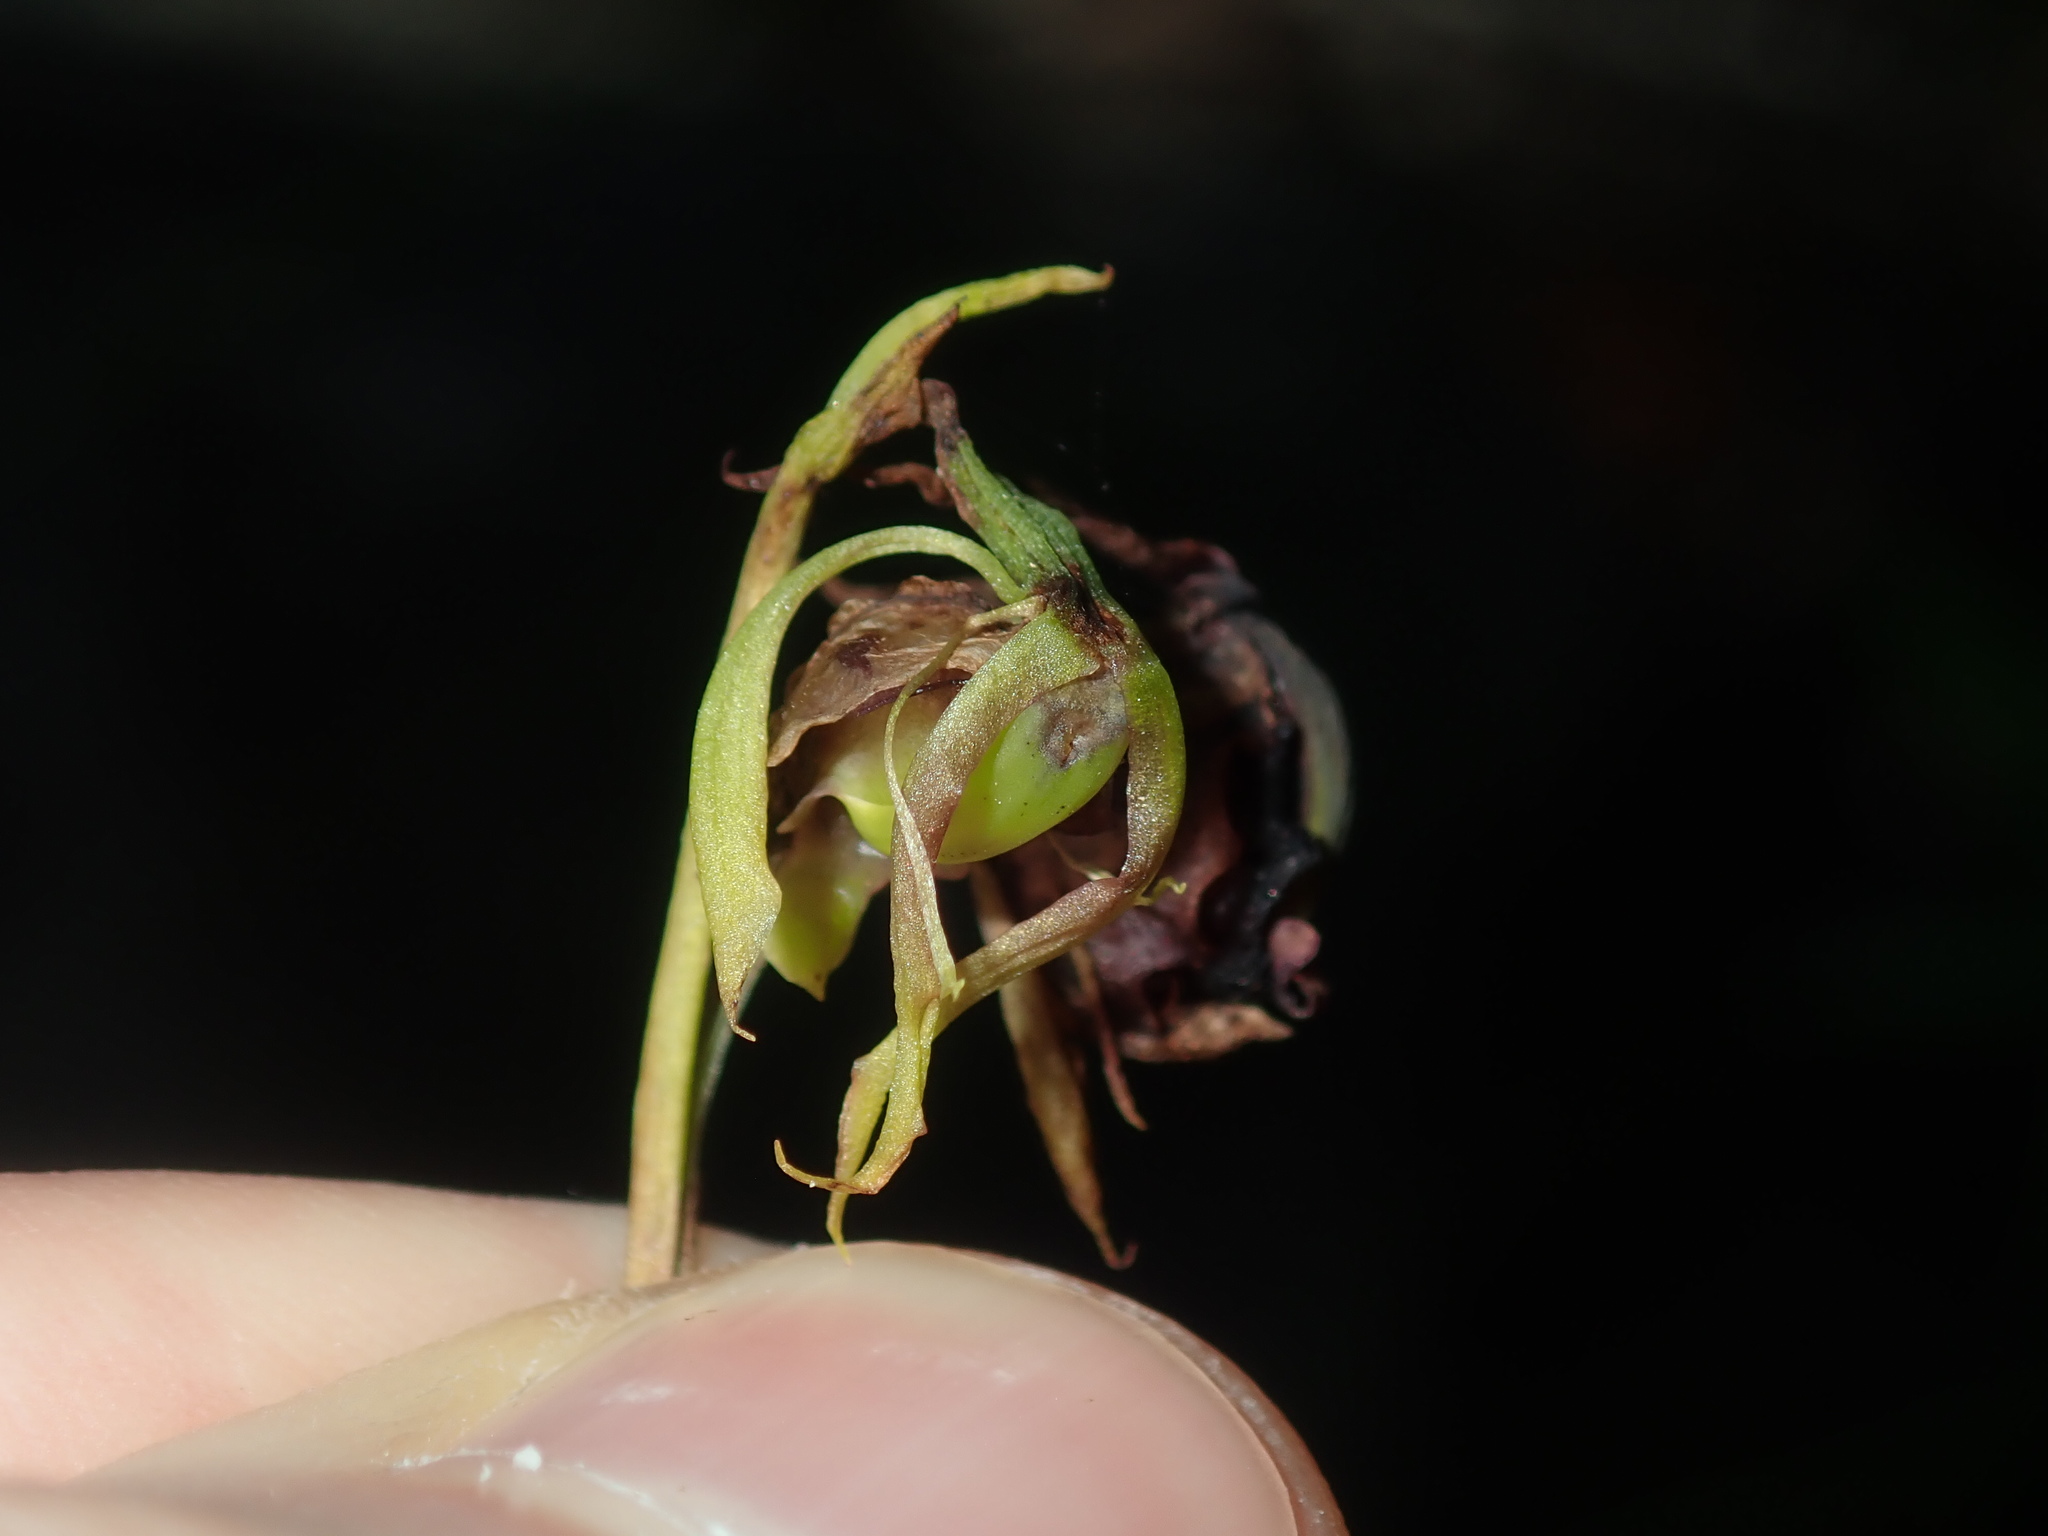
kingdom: Plantae
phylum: Tracheophyta
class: Liliopsida
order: Asparagales
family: Orchidaceae
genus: Caleana
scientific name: Caleana major
